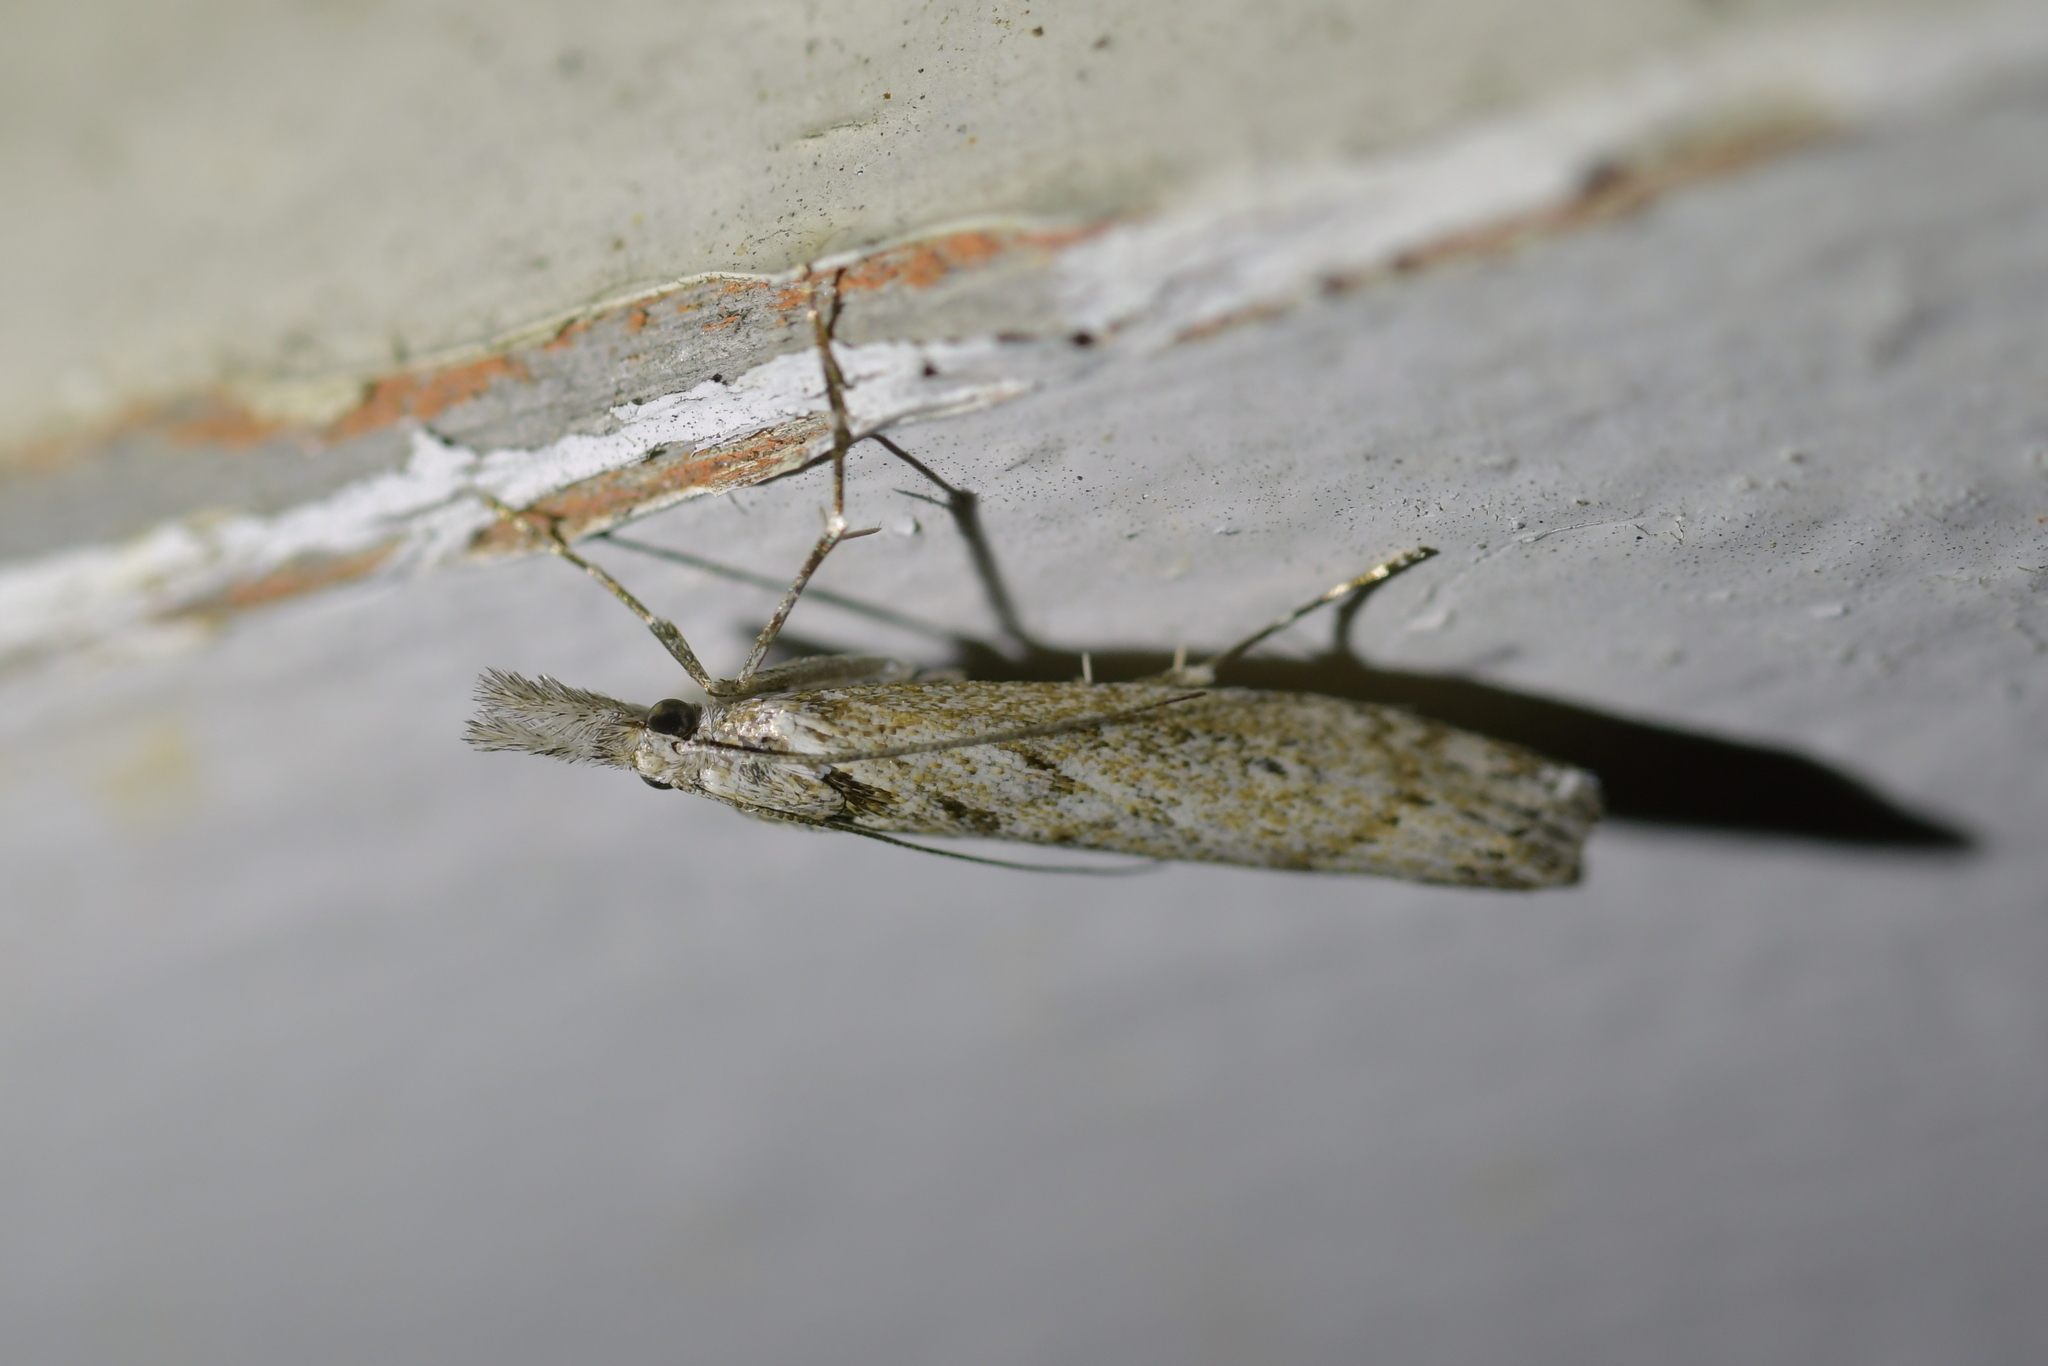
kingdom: Animalia
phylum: Arthropoda
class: Insecta
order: Lepidoptera
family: Crambidae
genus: Orocrambus
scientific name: Orocrambus cyclopicus
